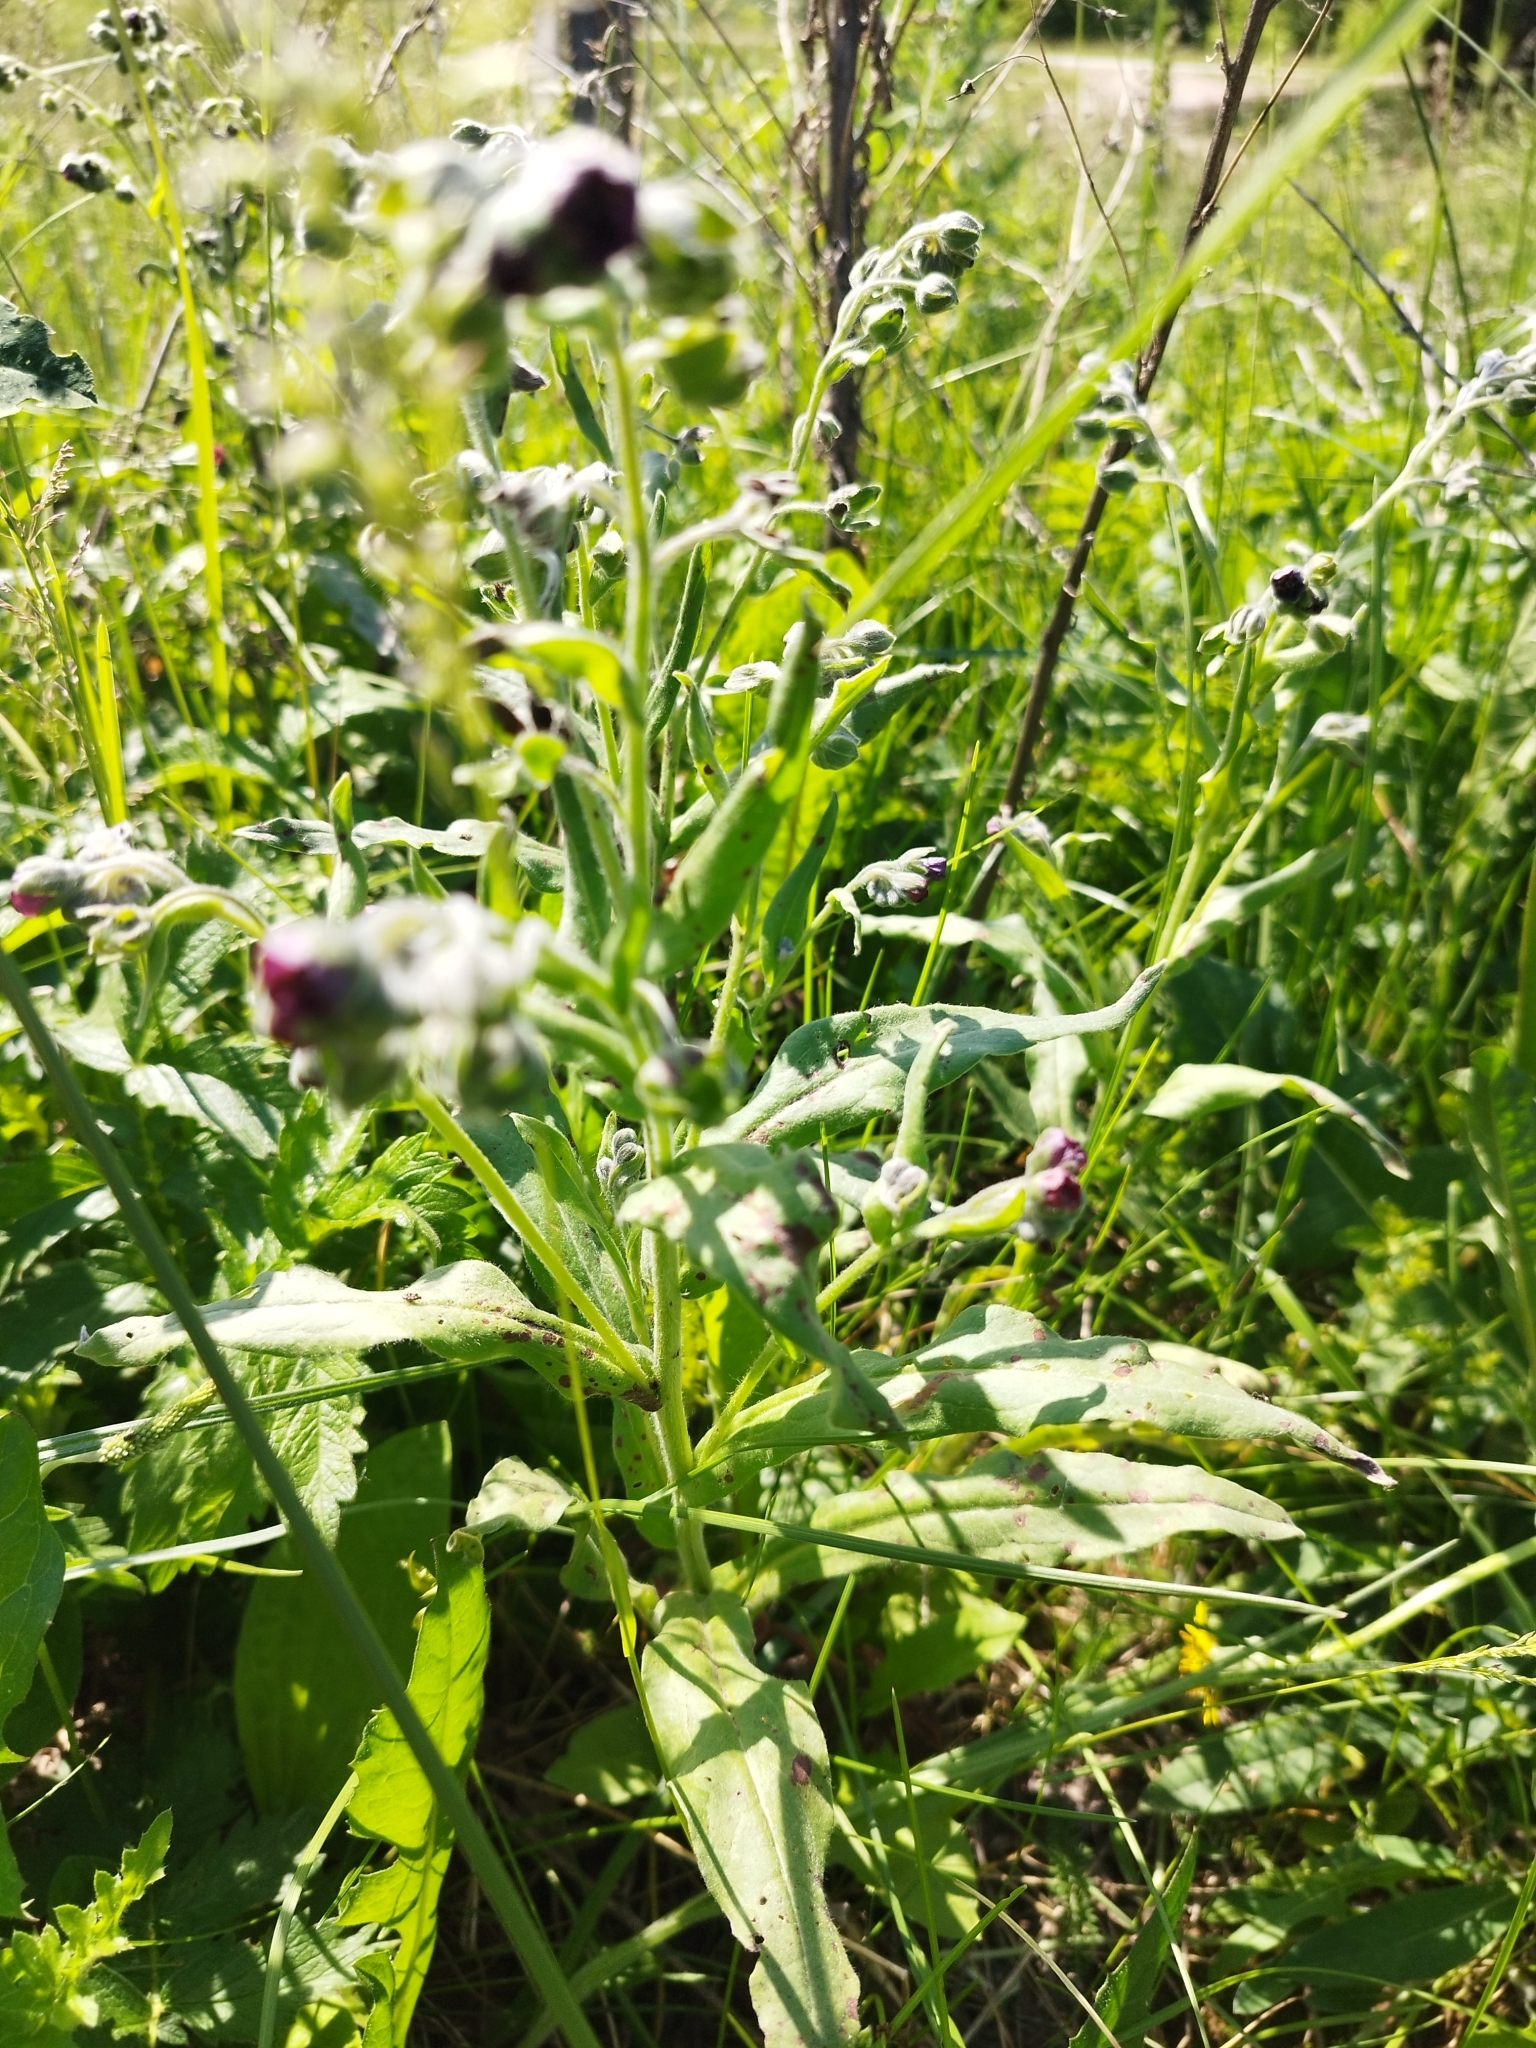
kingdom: Plantae
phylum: Tracheophyta
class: Magnoliopsida
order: Boraginales
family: Boraginaceae
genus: Cynoglossum
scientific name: Cynoglossum officinale
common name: Hound's-tongue
